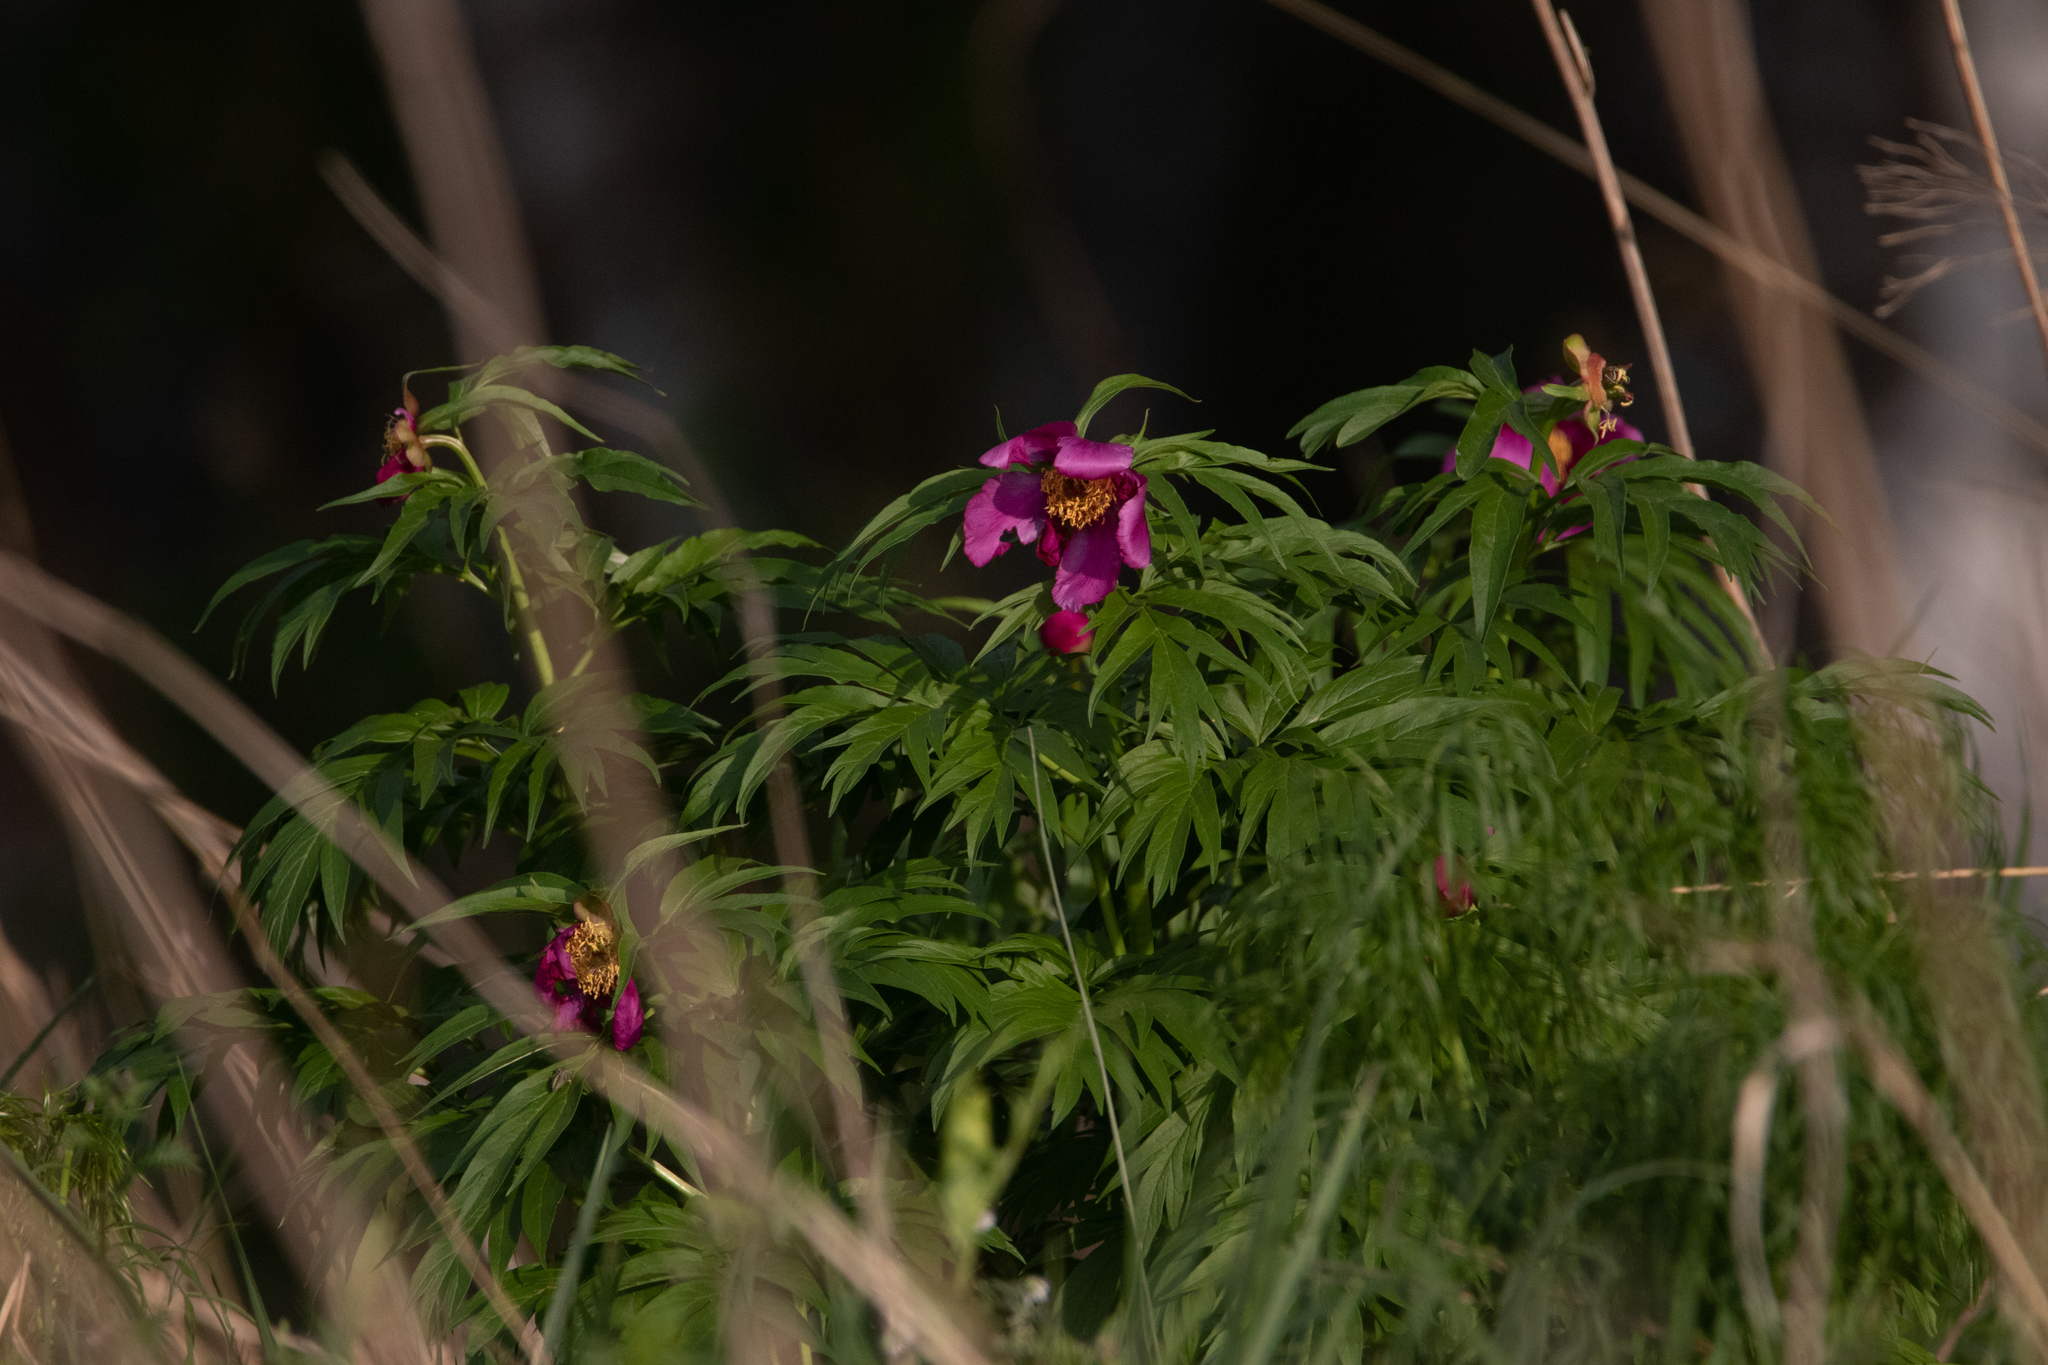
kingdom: Plantae
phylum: Tracheophyta
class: Magnoliopsida
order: Saxifragales
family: Paeoniaceae
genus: Paeonia
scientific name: Paeonia anomala
